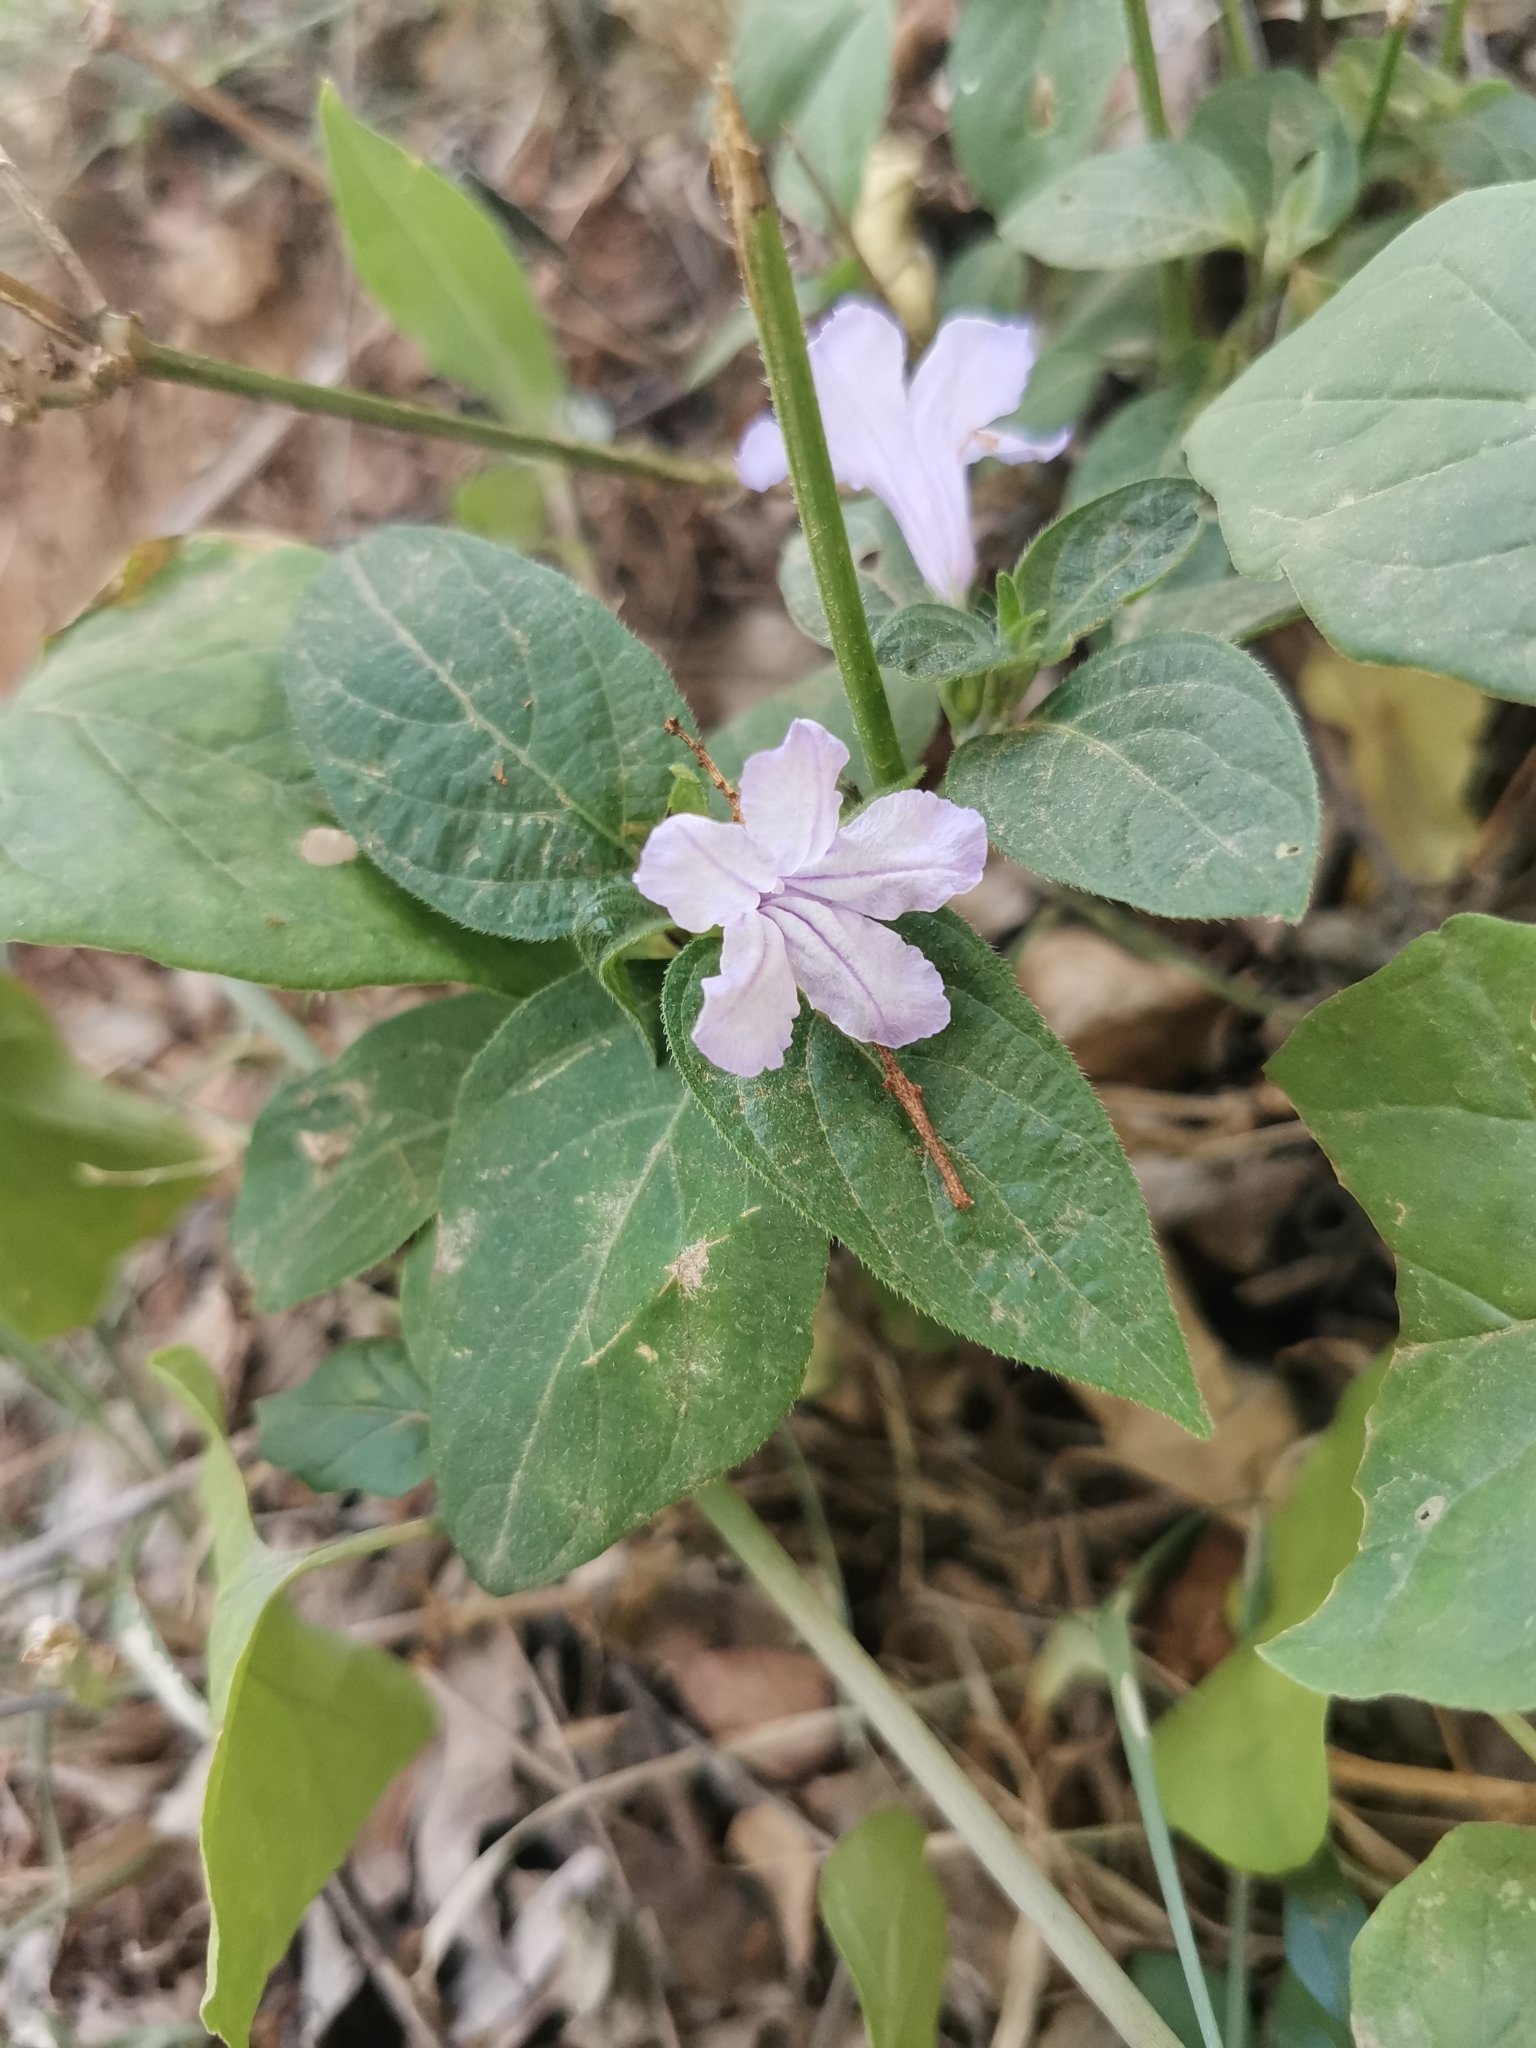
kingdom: Plantae
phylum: Tracheophyta
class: Magnoliopsida
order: Lamiales
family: Acanthaceae
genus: Ruellia
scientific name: Ruellia prostrata
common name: Prostrate wild petunia
